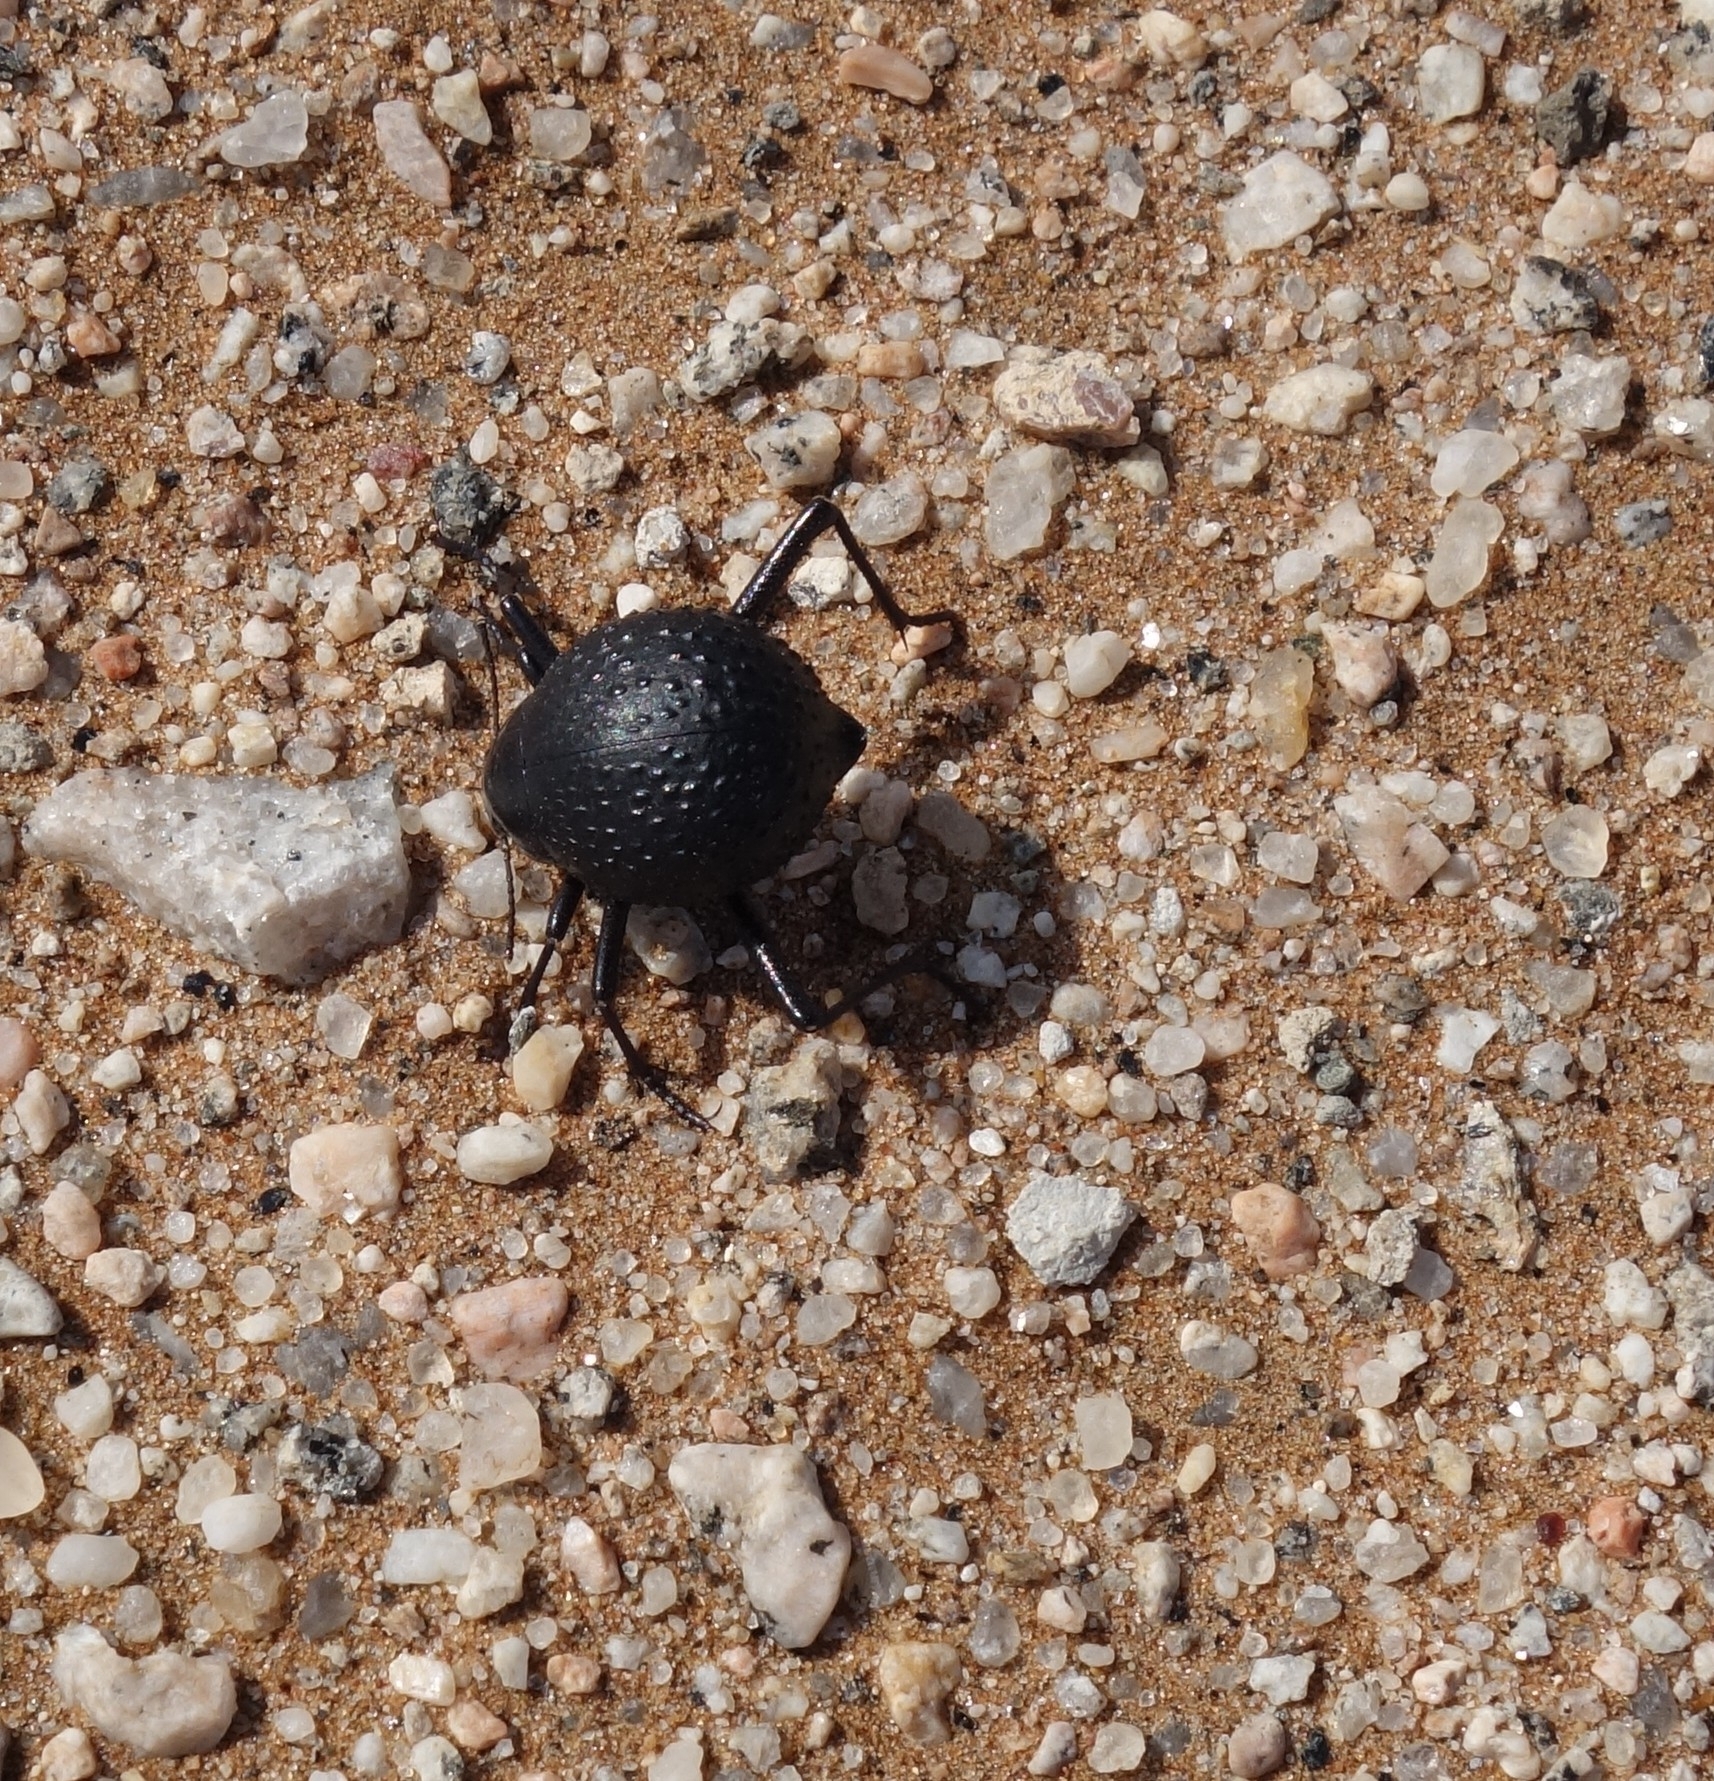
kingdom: Animalia
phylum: Arthropoda
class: Insecta
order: Coleoptera
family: Tenebrionidae
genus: Adesmia
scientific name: Adesmia
